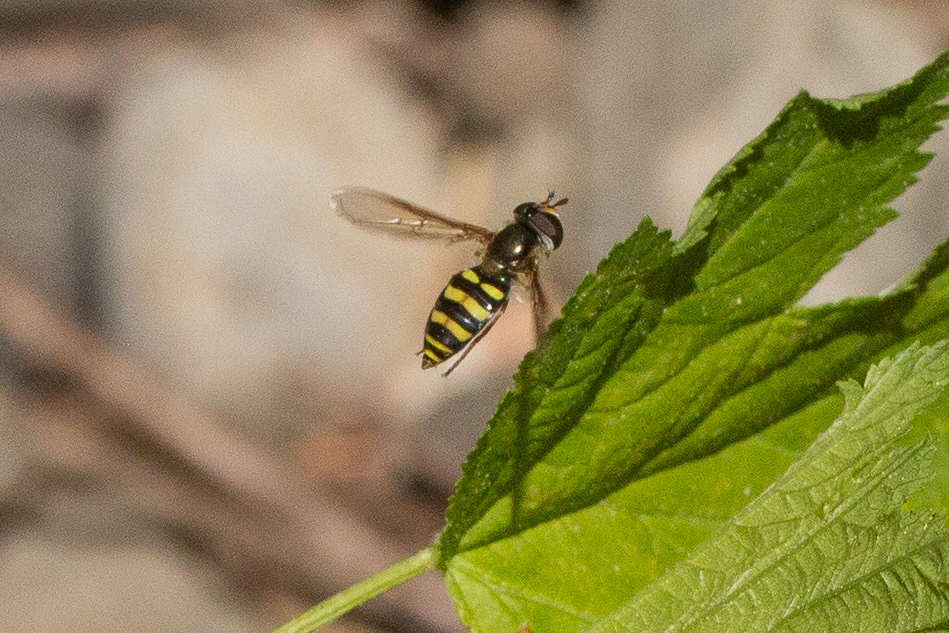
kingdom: Animalia
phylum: Arthropoda
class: Insecta
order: Diptera
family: Syrphidae
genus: Eupeodes
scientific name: Eupeodes
